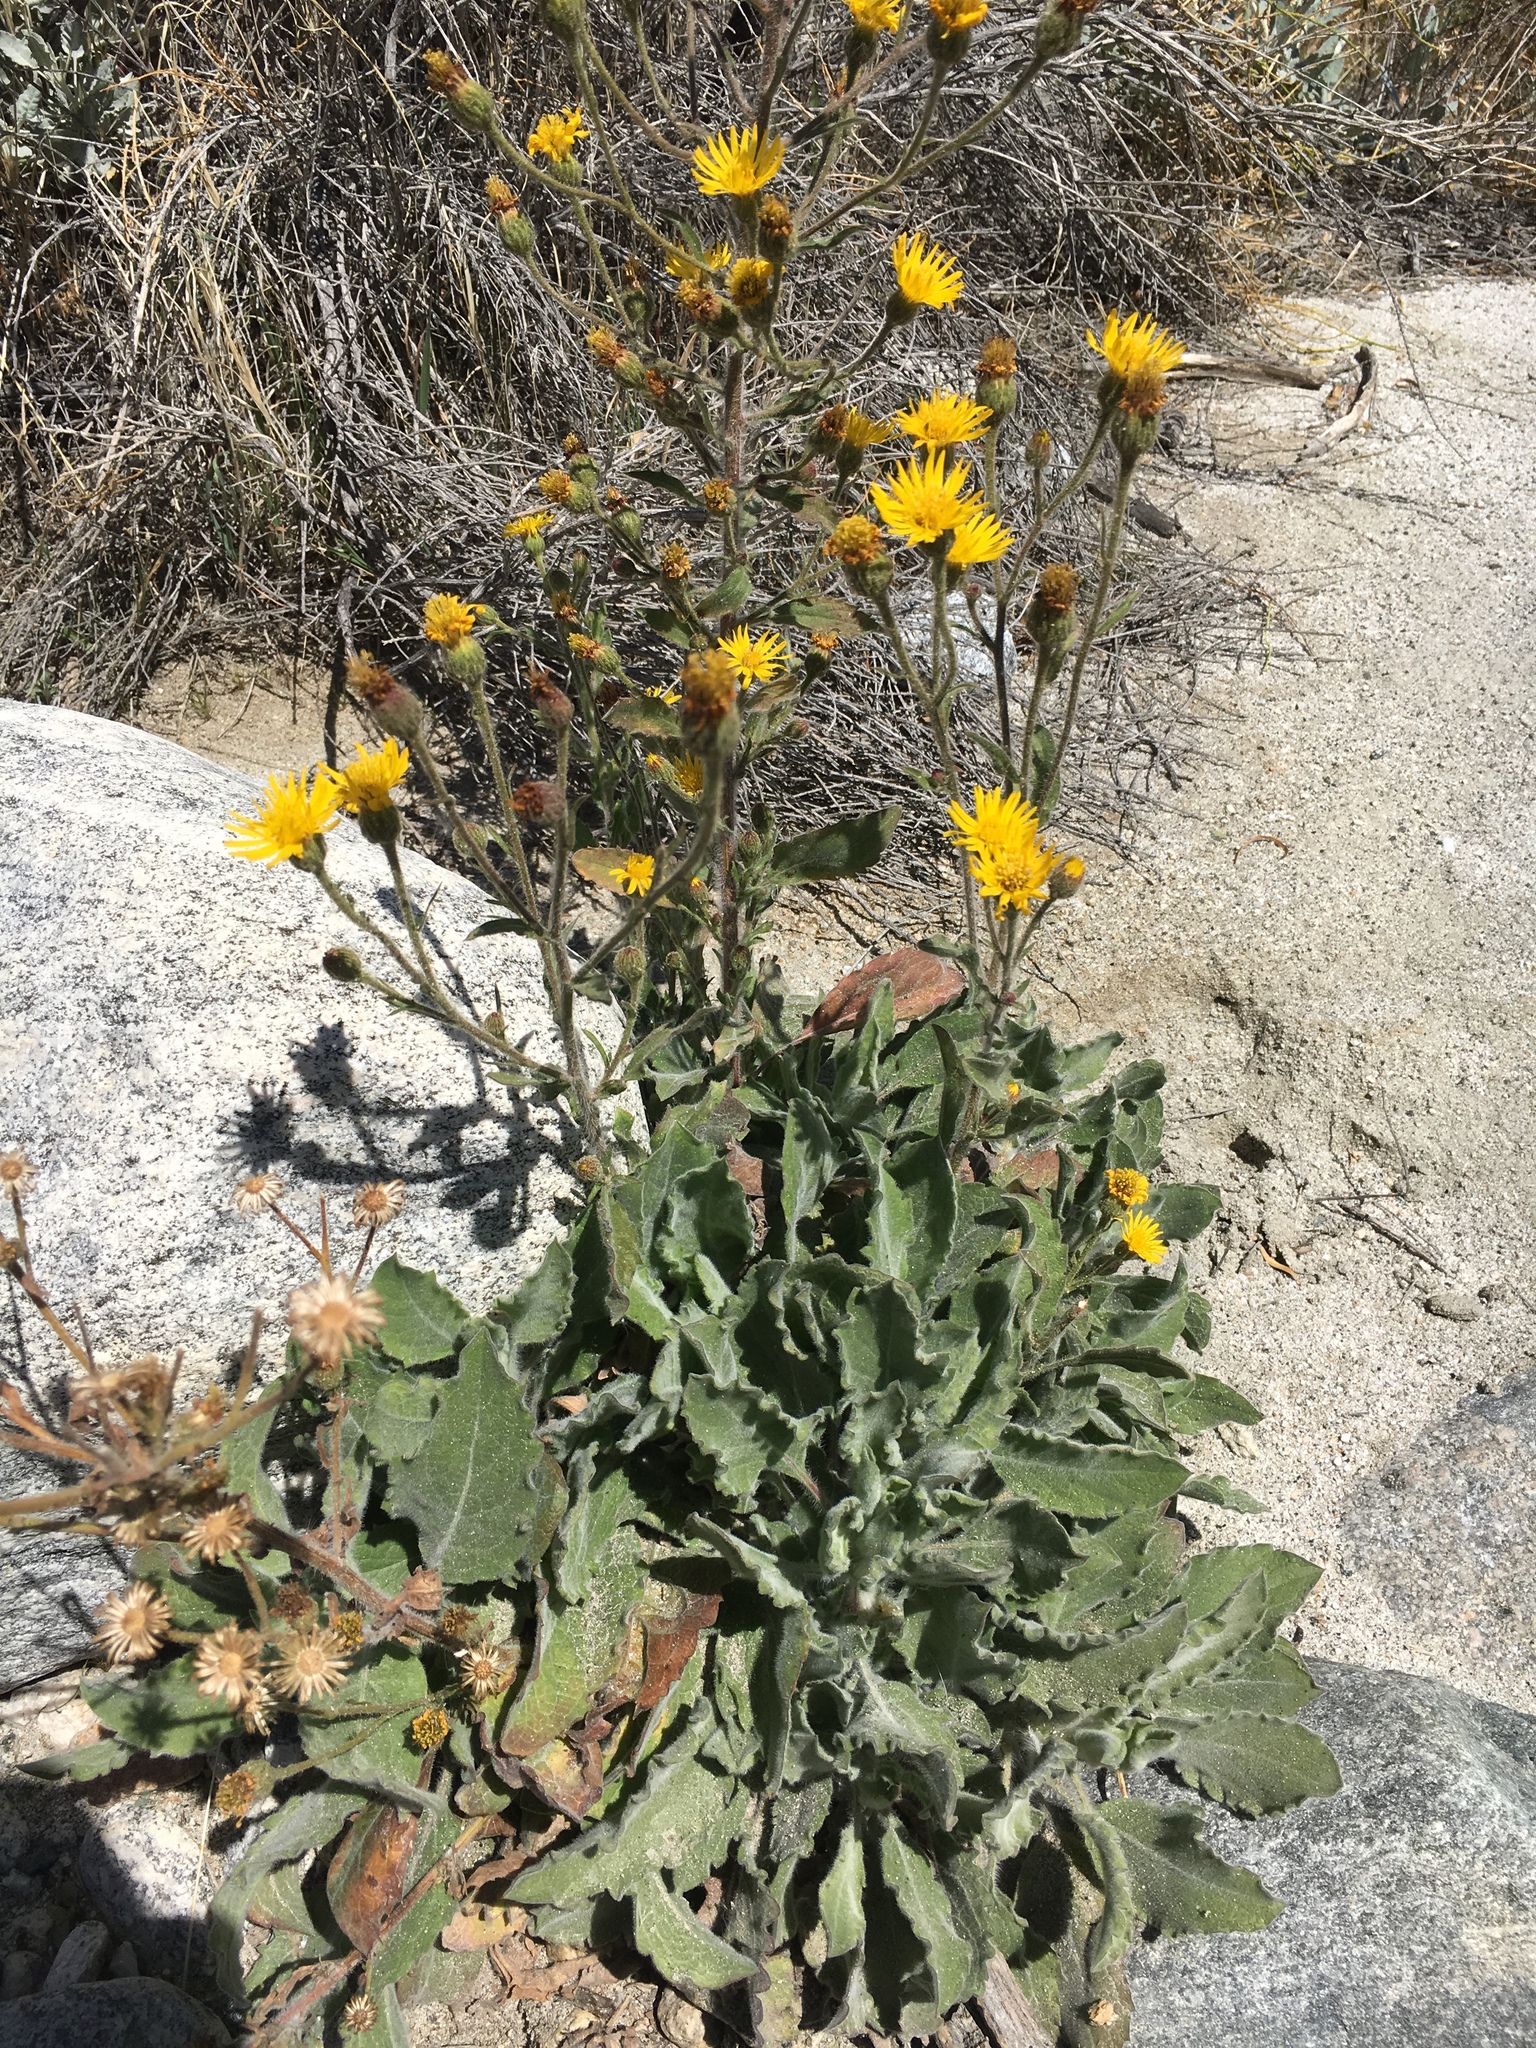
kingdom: Plantae
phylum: Tracheophyta
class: Magnoliopsida
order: Asterales
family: Asteraceae
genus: Heterotheca
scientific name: Heterotheca grandiflora
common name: Telegraphweed
